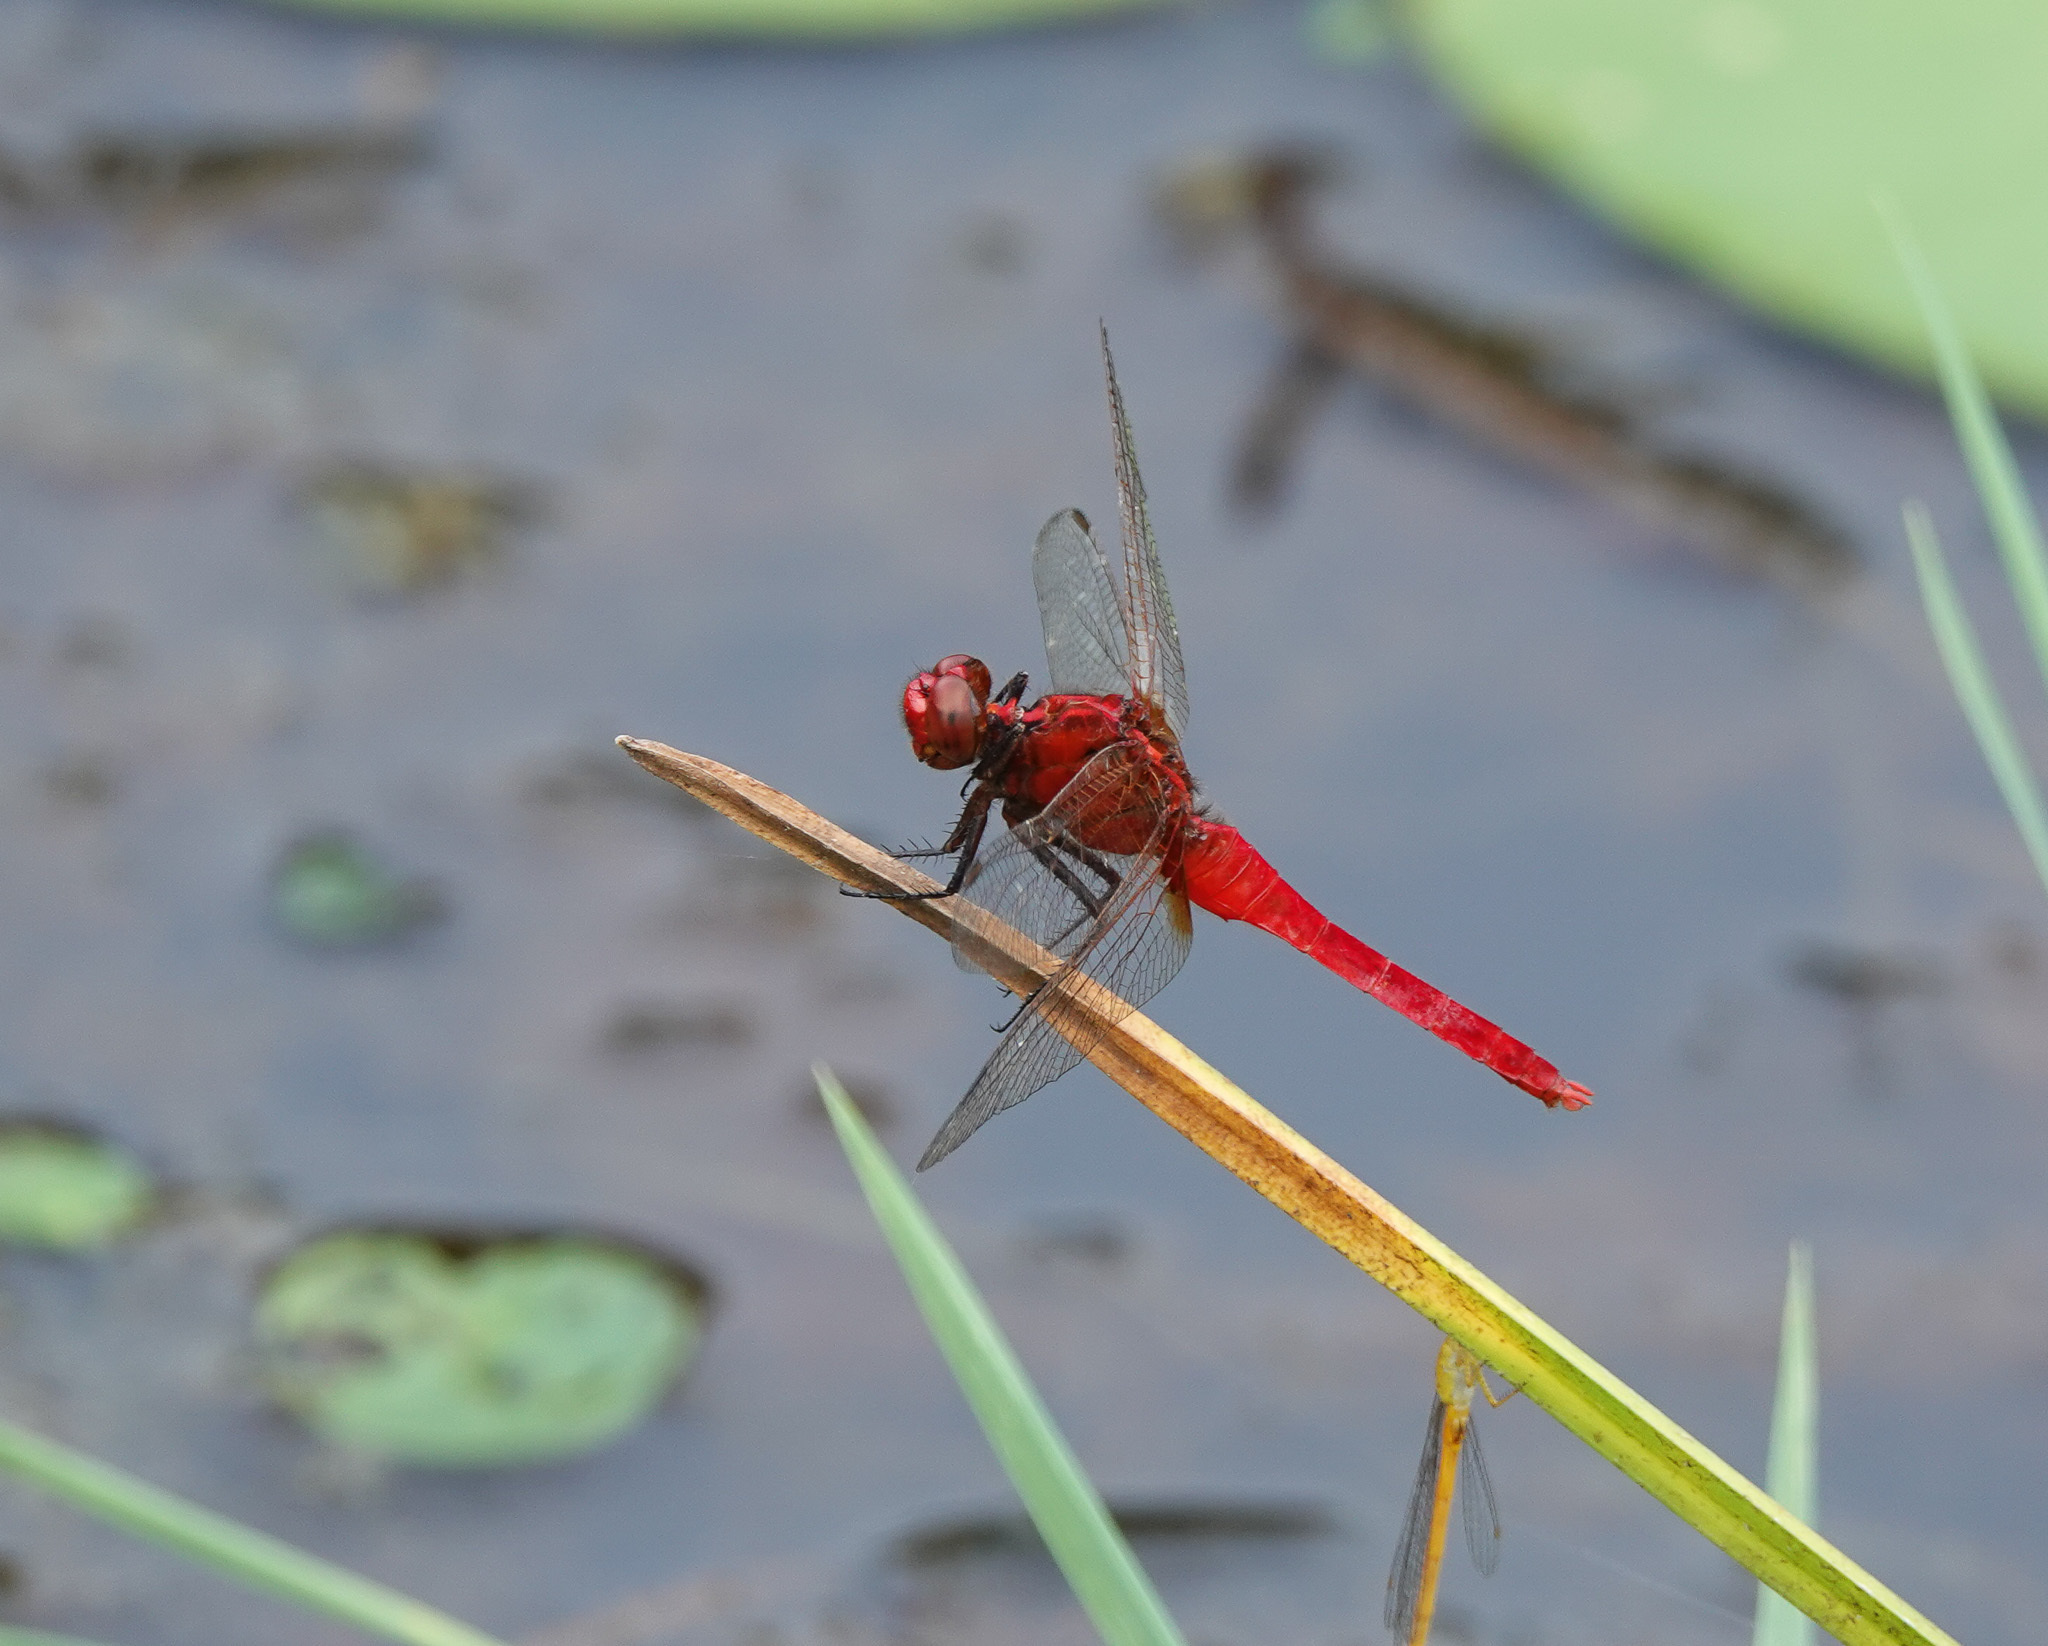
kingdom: Animalia
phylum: Arthropoda
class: Insecta
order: Odonata
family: Libellulidae
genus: Rhodothemis
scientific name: Rhodothemis rufa
